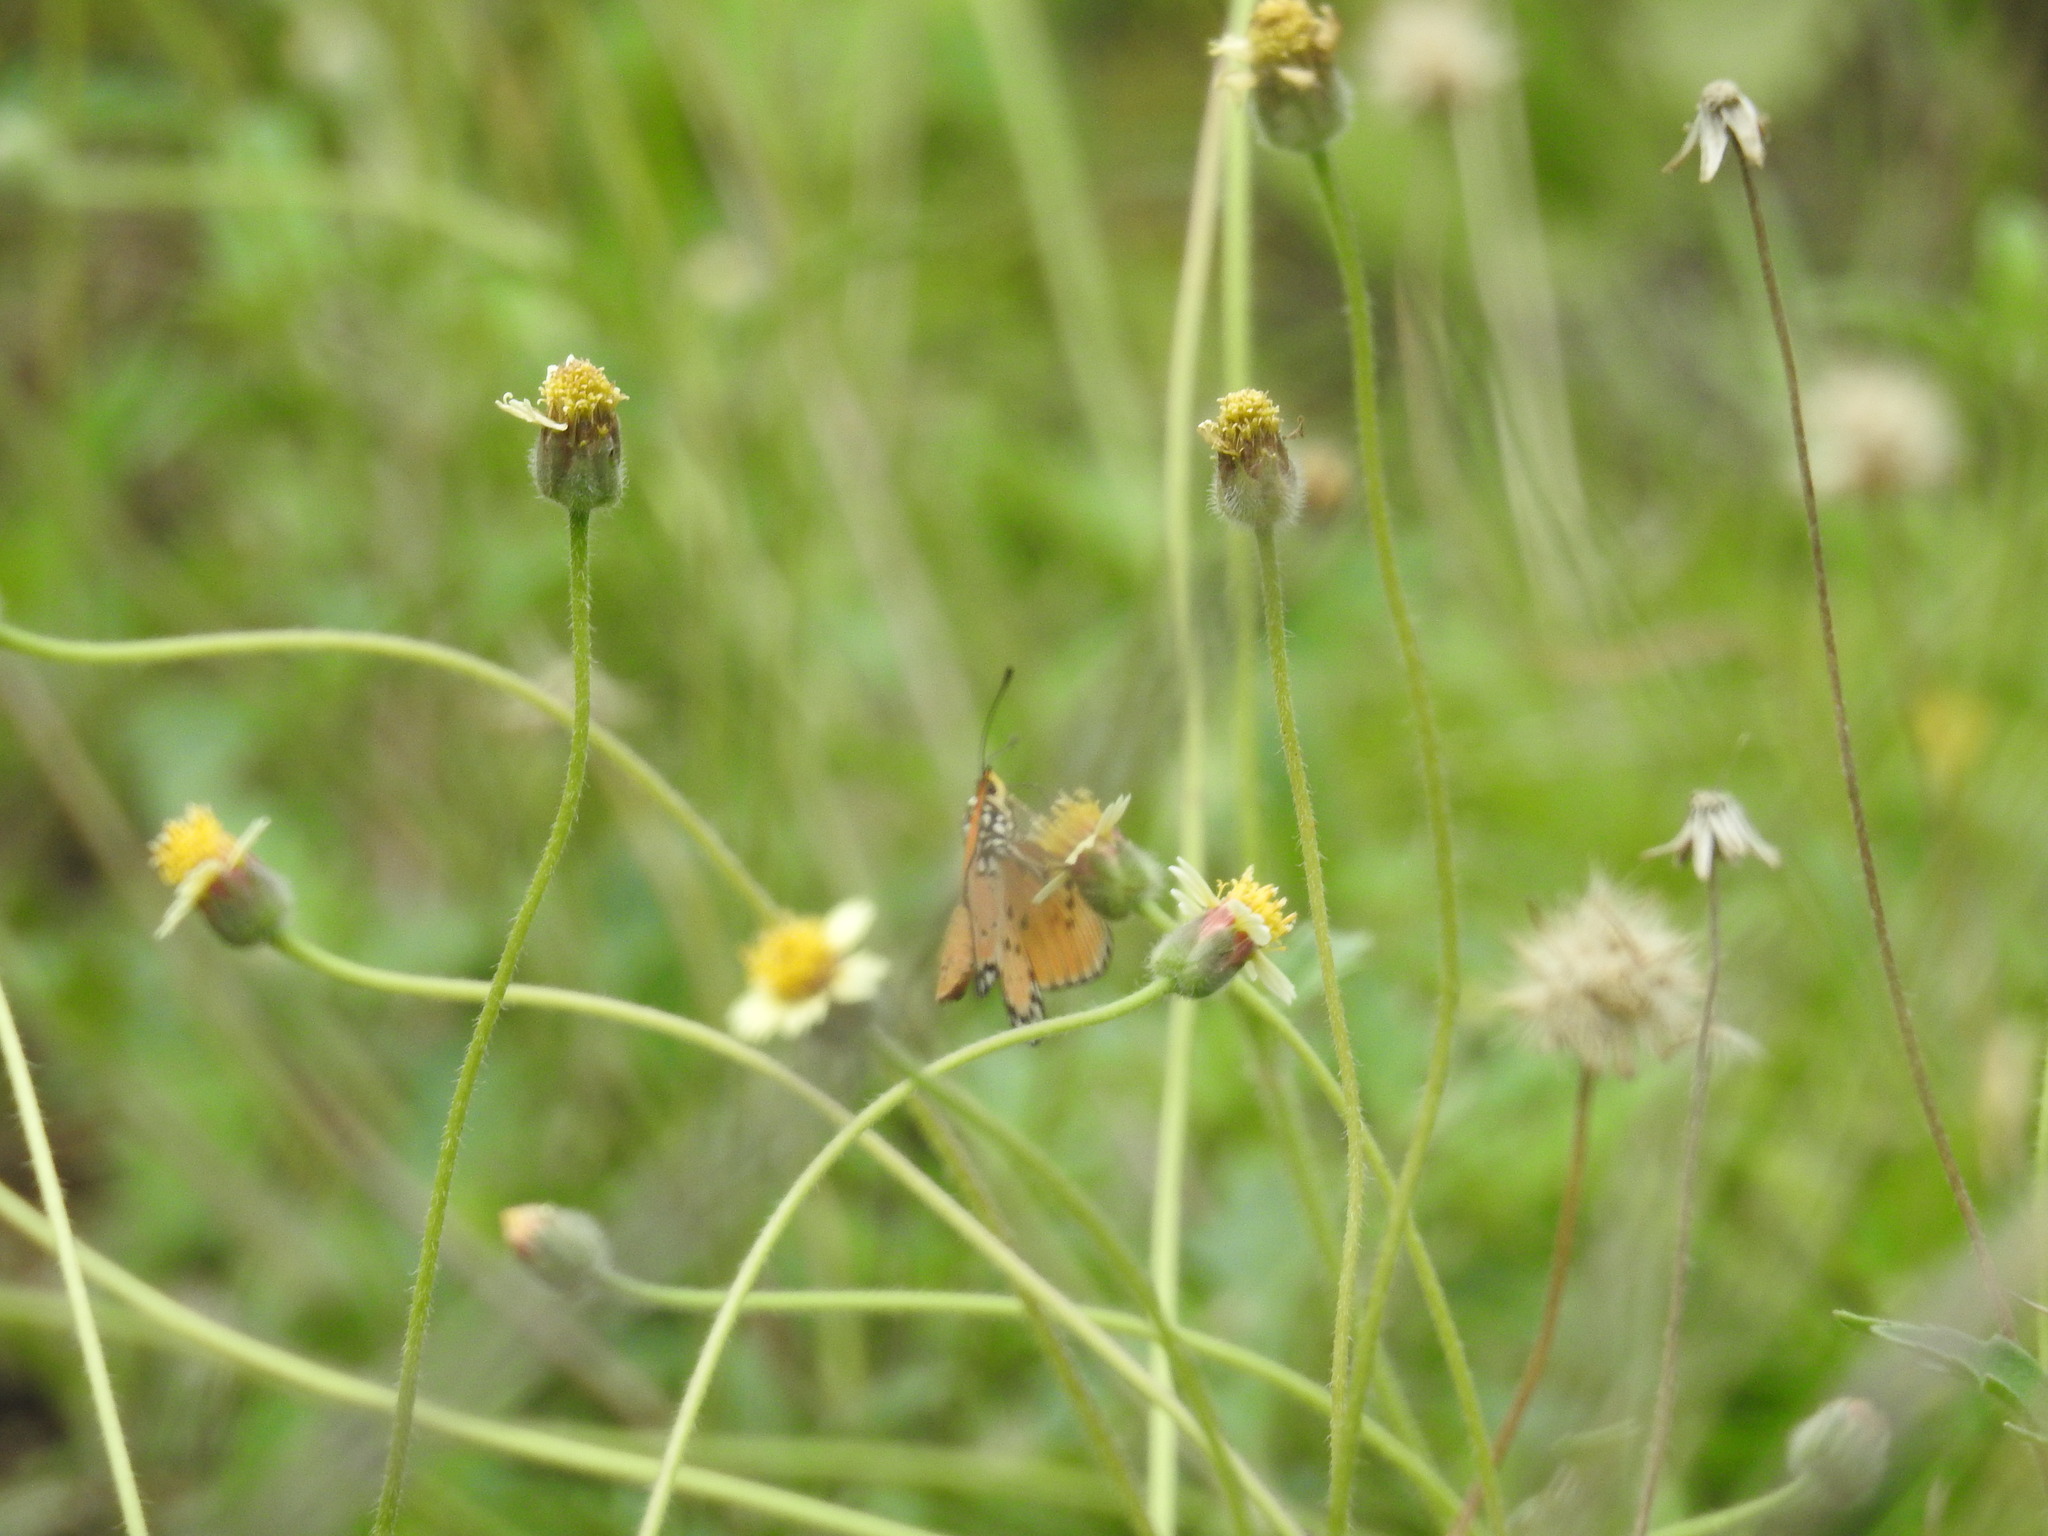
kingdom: Animalia
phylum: Arthropoda
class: Insecta
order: Lepidoptera
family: Nymphalidae
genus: Acraea
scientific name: Acraea terpsicore
